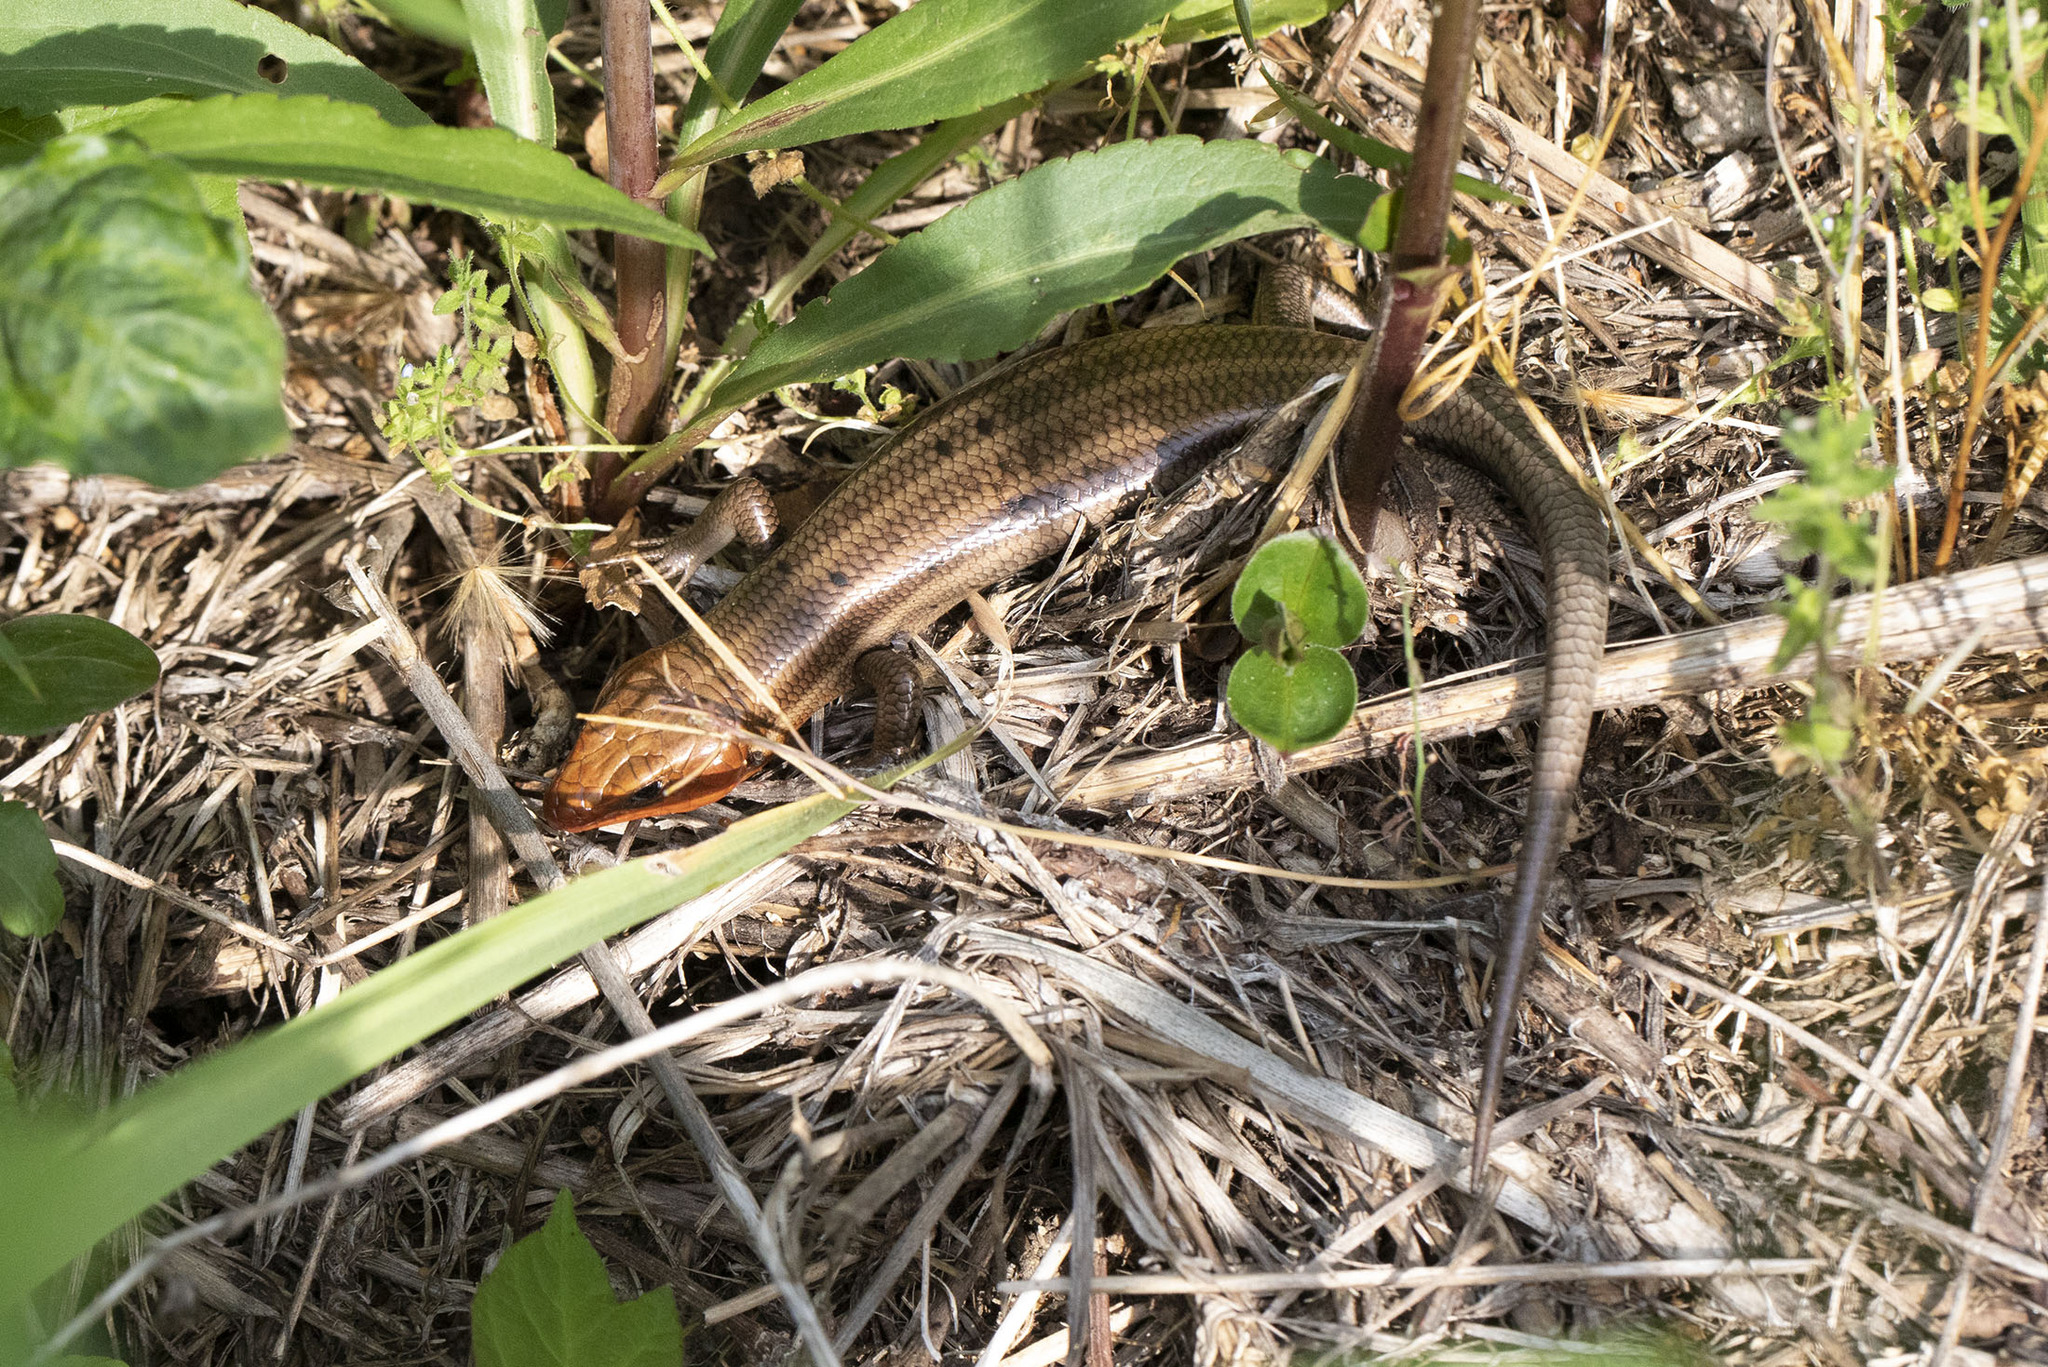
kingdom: Animalia
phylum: Chordata
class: Squamata
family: Scincidae
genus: Plestiodon
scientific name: Plestiodon fasciatus
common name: Five-lined skink
